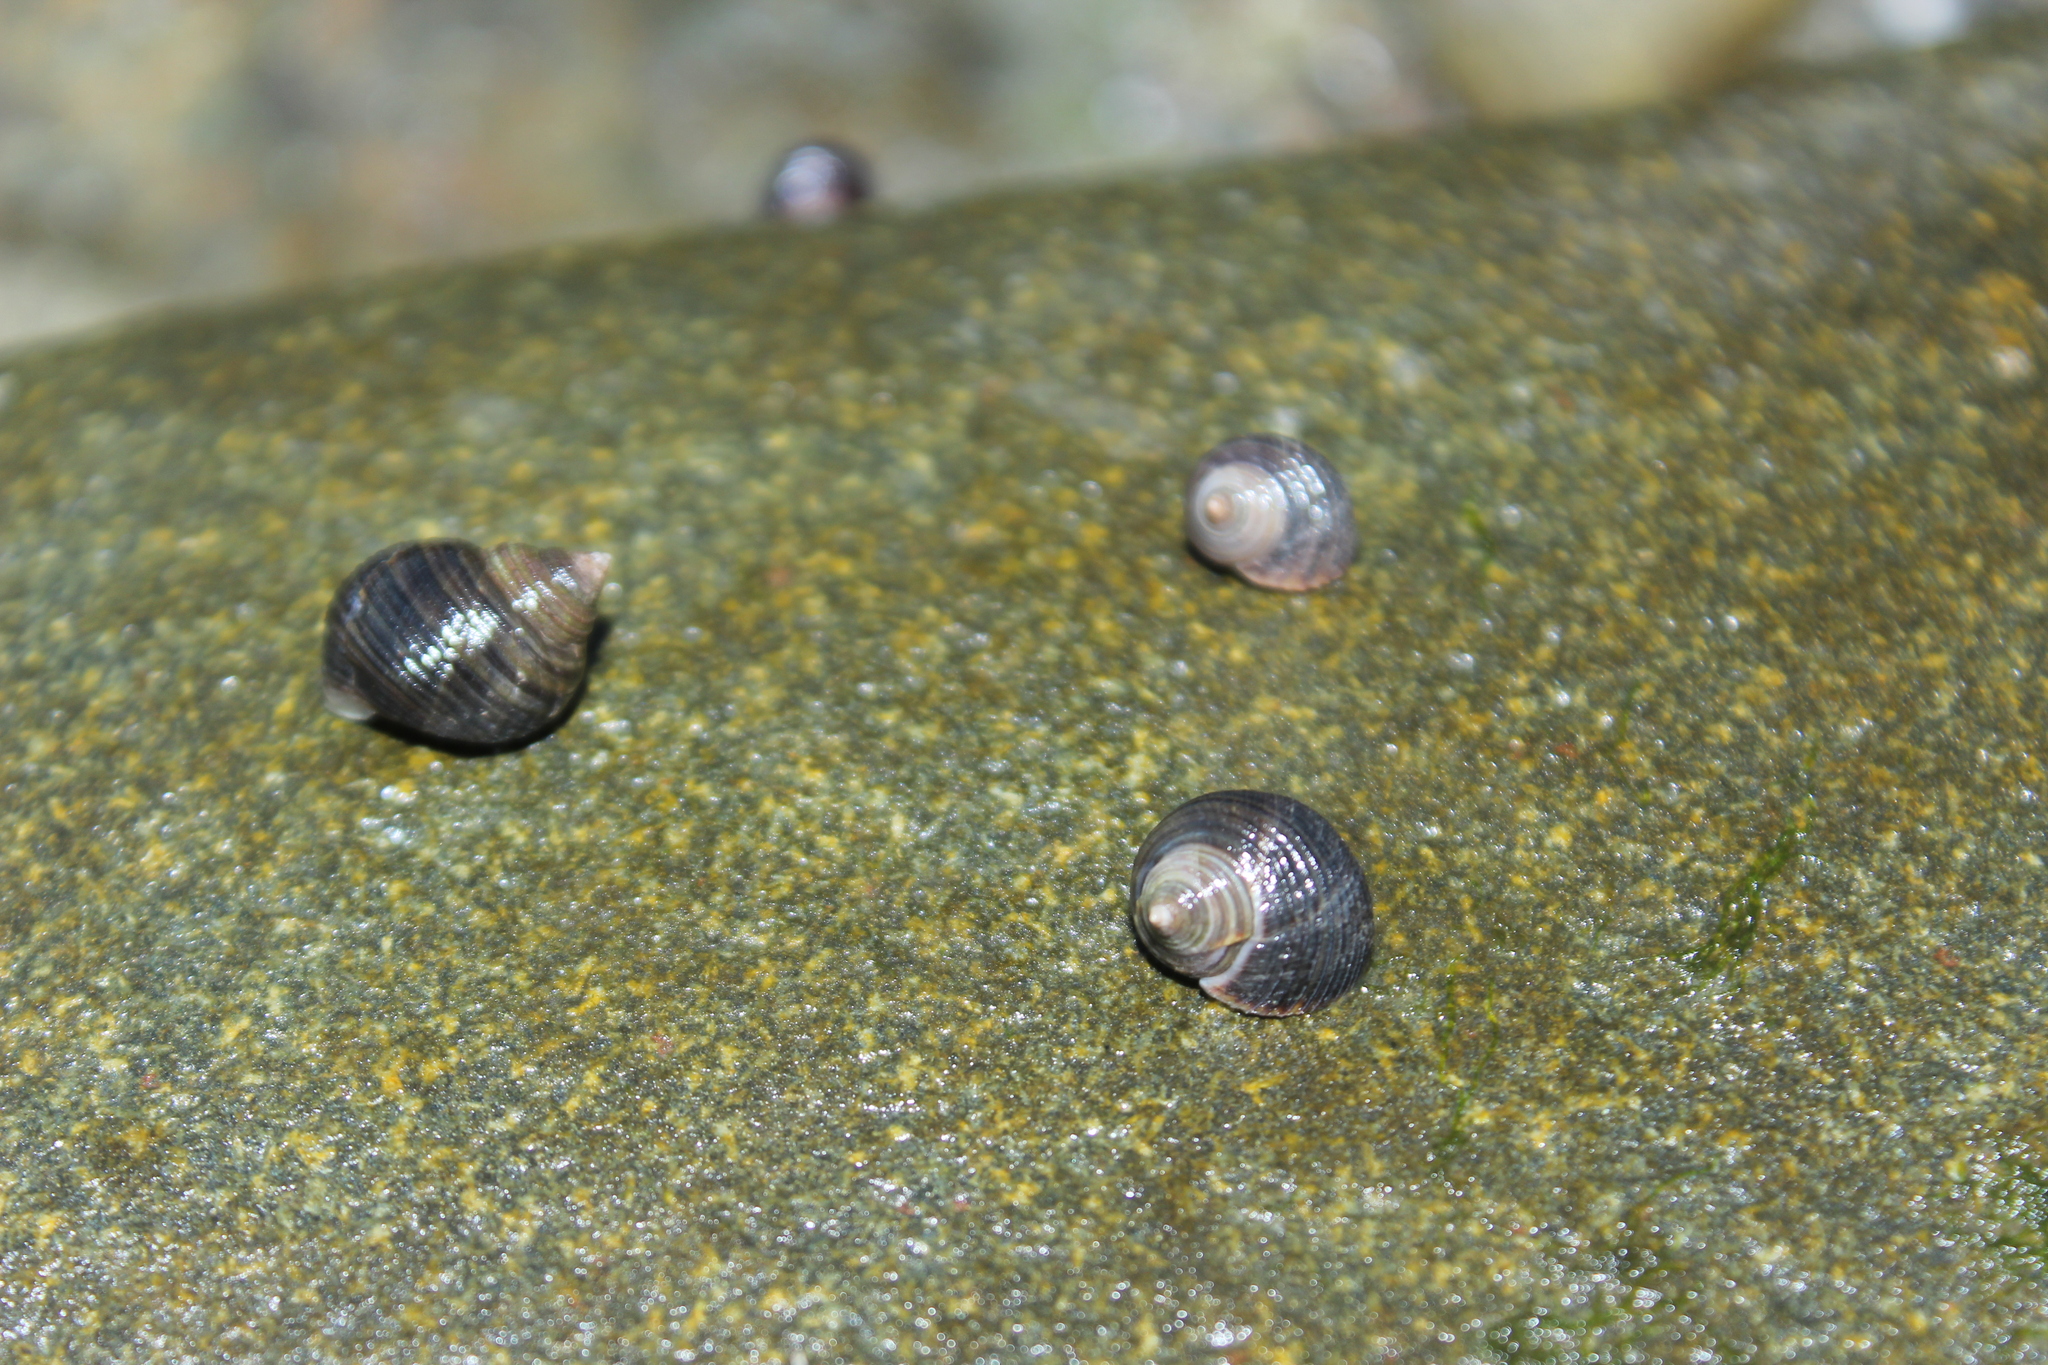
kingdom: Animalia
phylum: Mollusca
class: Gastropoda
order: Littorinimorpha
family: Littorinidae
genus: Littorina
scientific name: Littorina littorea
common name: Common periwinkle
